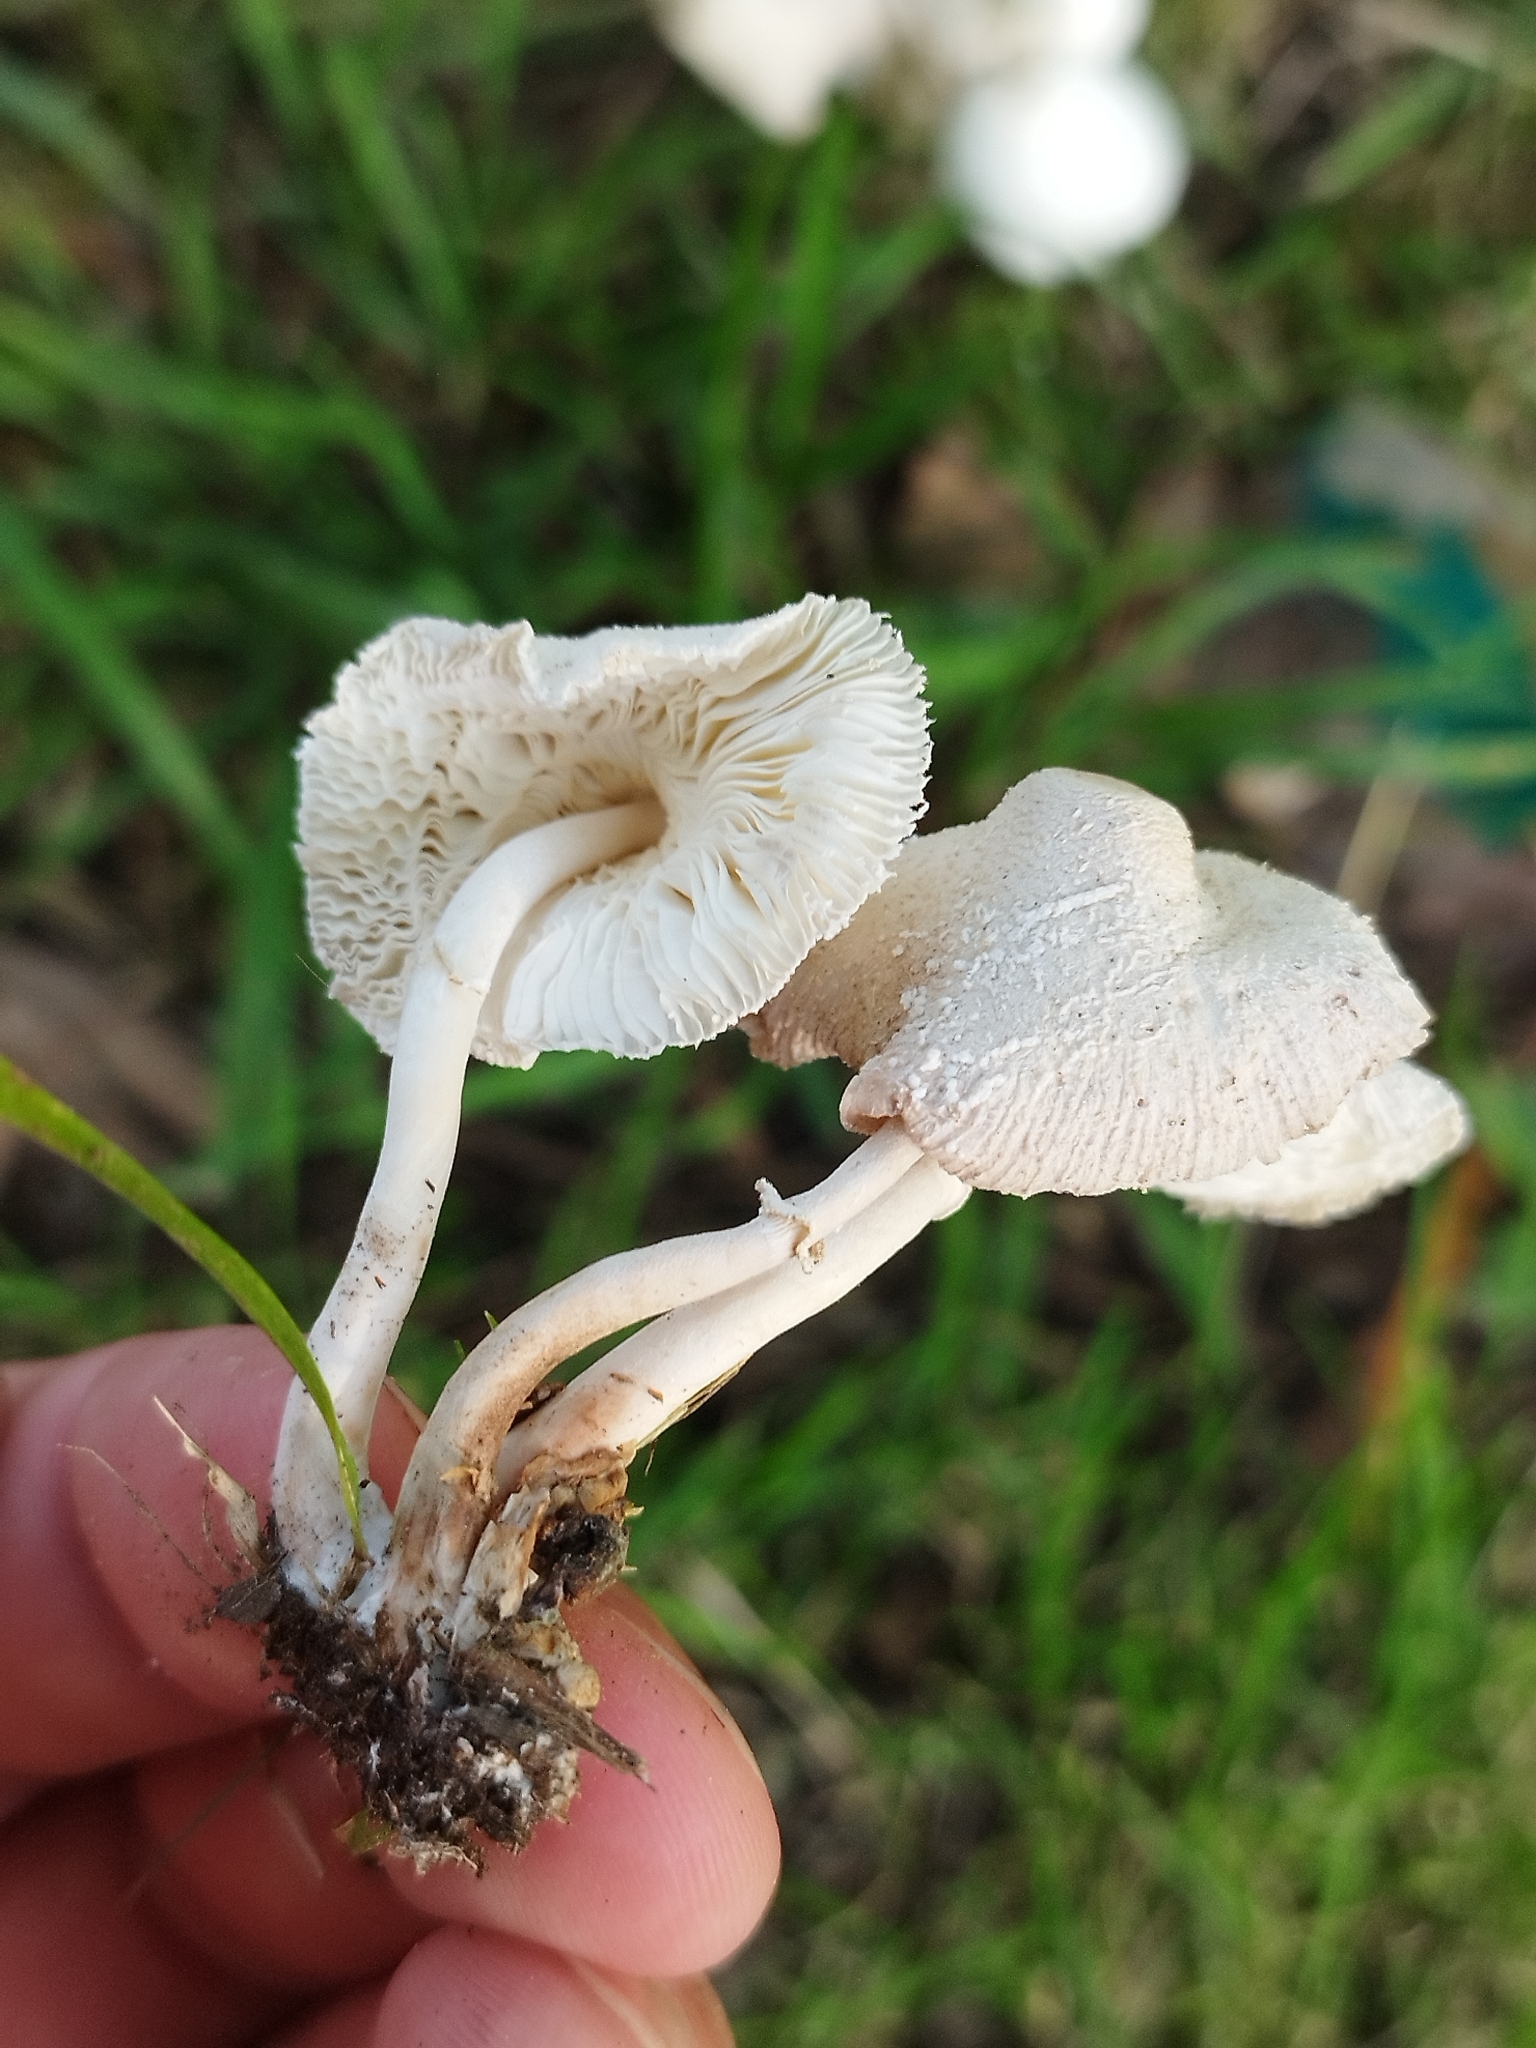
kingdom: Fungi
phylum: Basidiomycota
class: Agaricomycetes
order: Agaricales
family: Agaricaceae
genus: Leucocoprinus
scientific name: Leucocoprinus cepistipes
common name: Onion-stalk parasol
